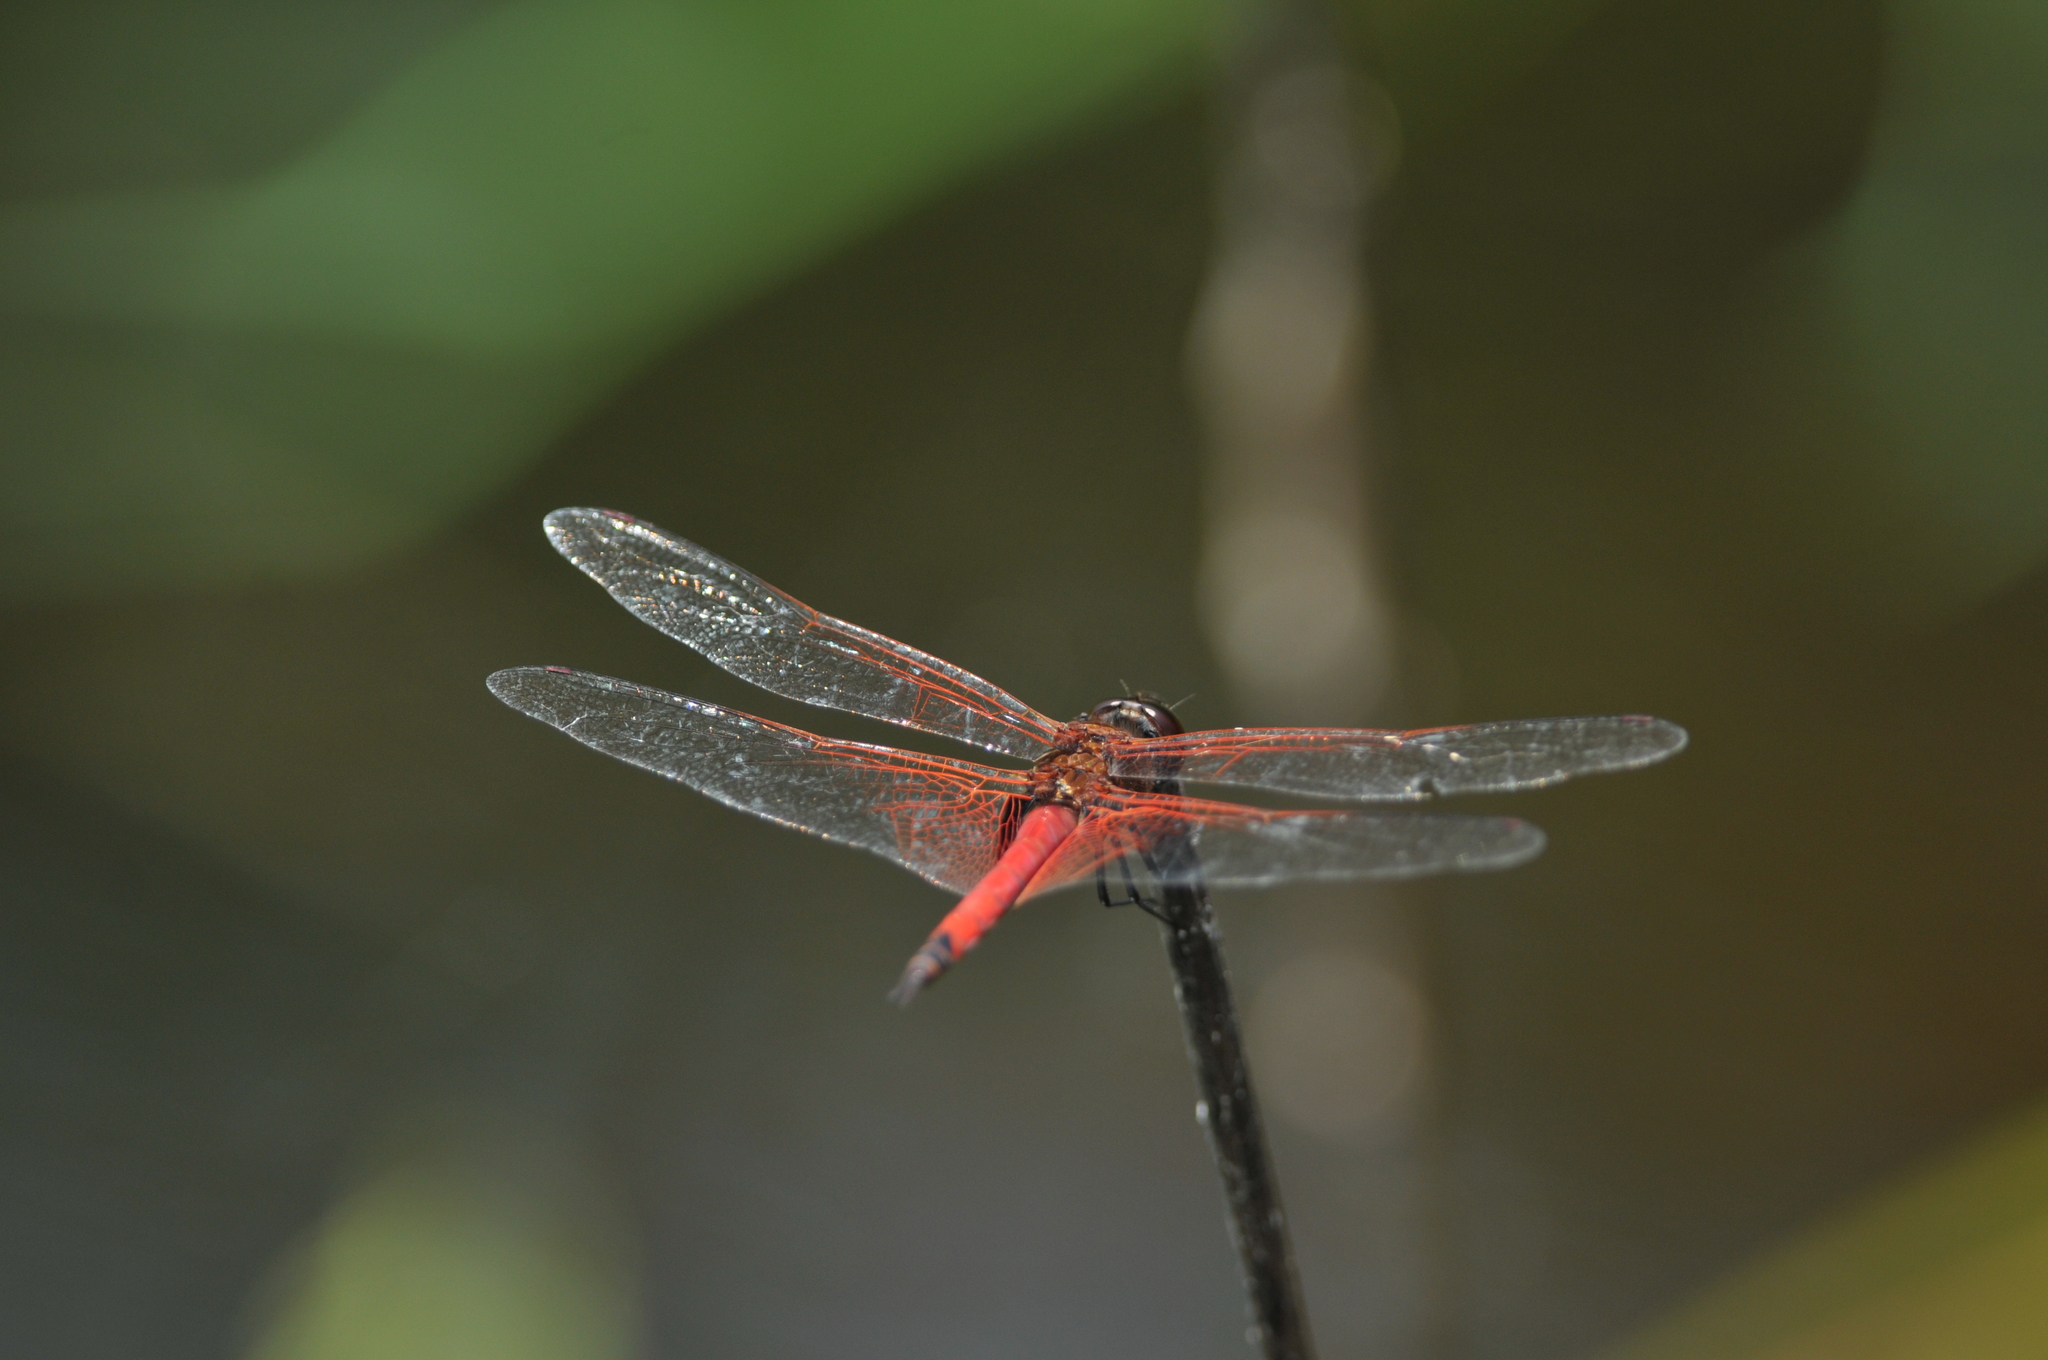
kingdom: Animalia
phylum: Arthropoda
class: Insecta
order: Odonata
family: Libellulidae
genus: Tramea
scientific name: Tramea transmarina
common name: Red glider dragonfly
